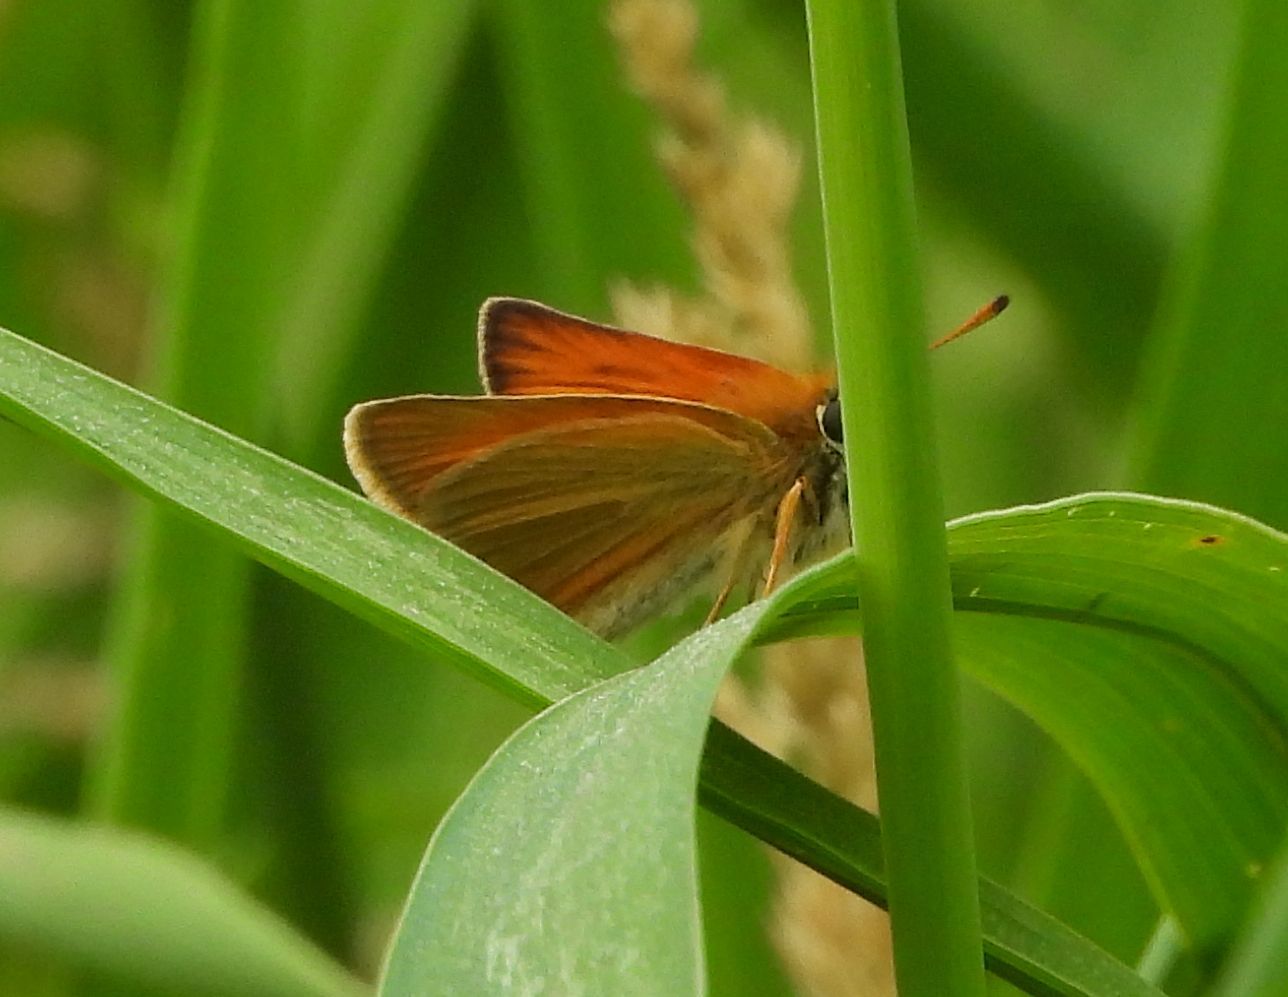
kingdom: Animalia
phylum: Arthropoda
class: Insecta
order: Lepidoptera
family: Hesperiidae
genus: Thymelicus
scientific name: Thymelicus lineola
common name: Essex skipper
